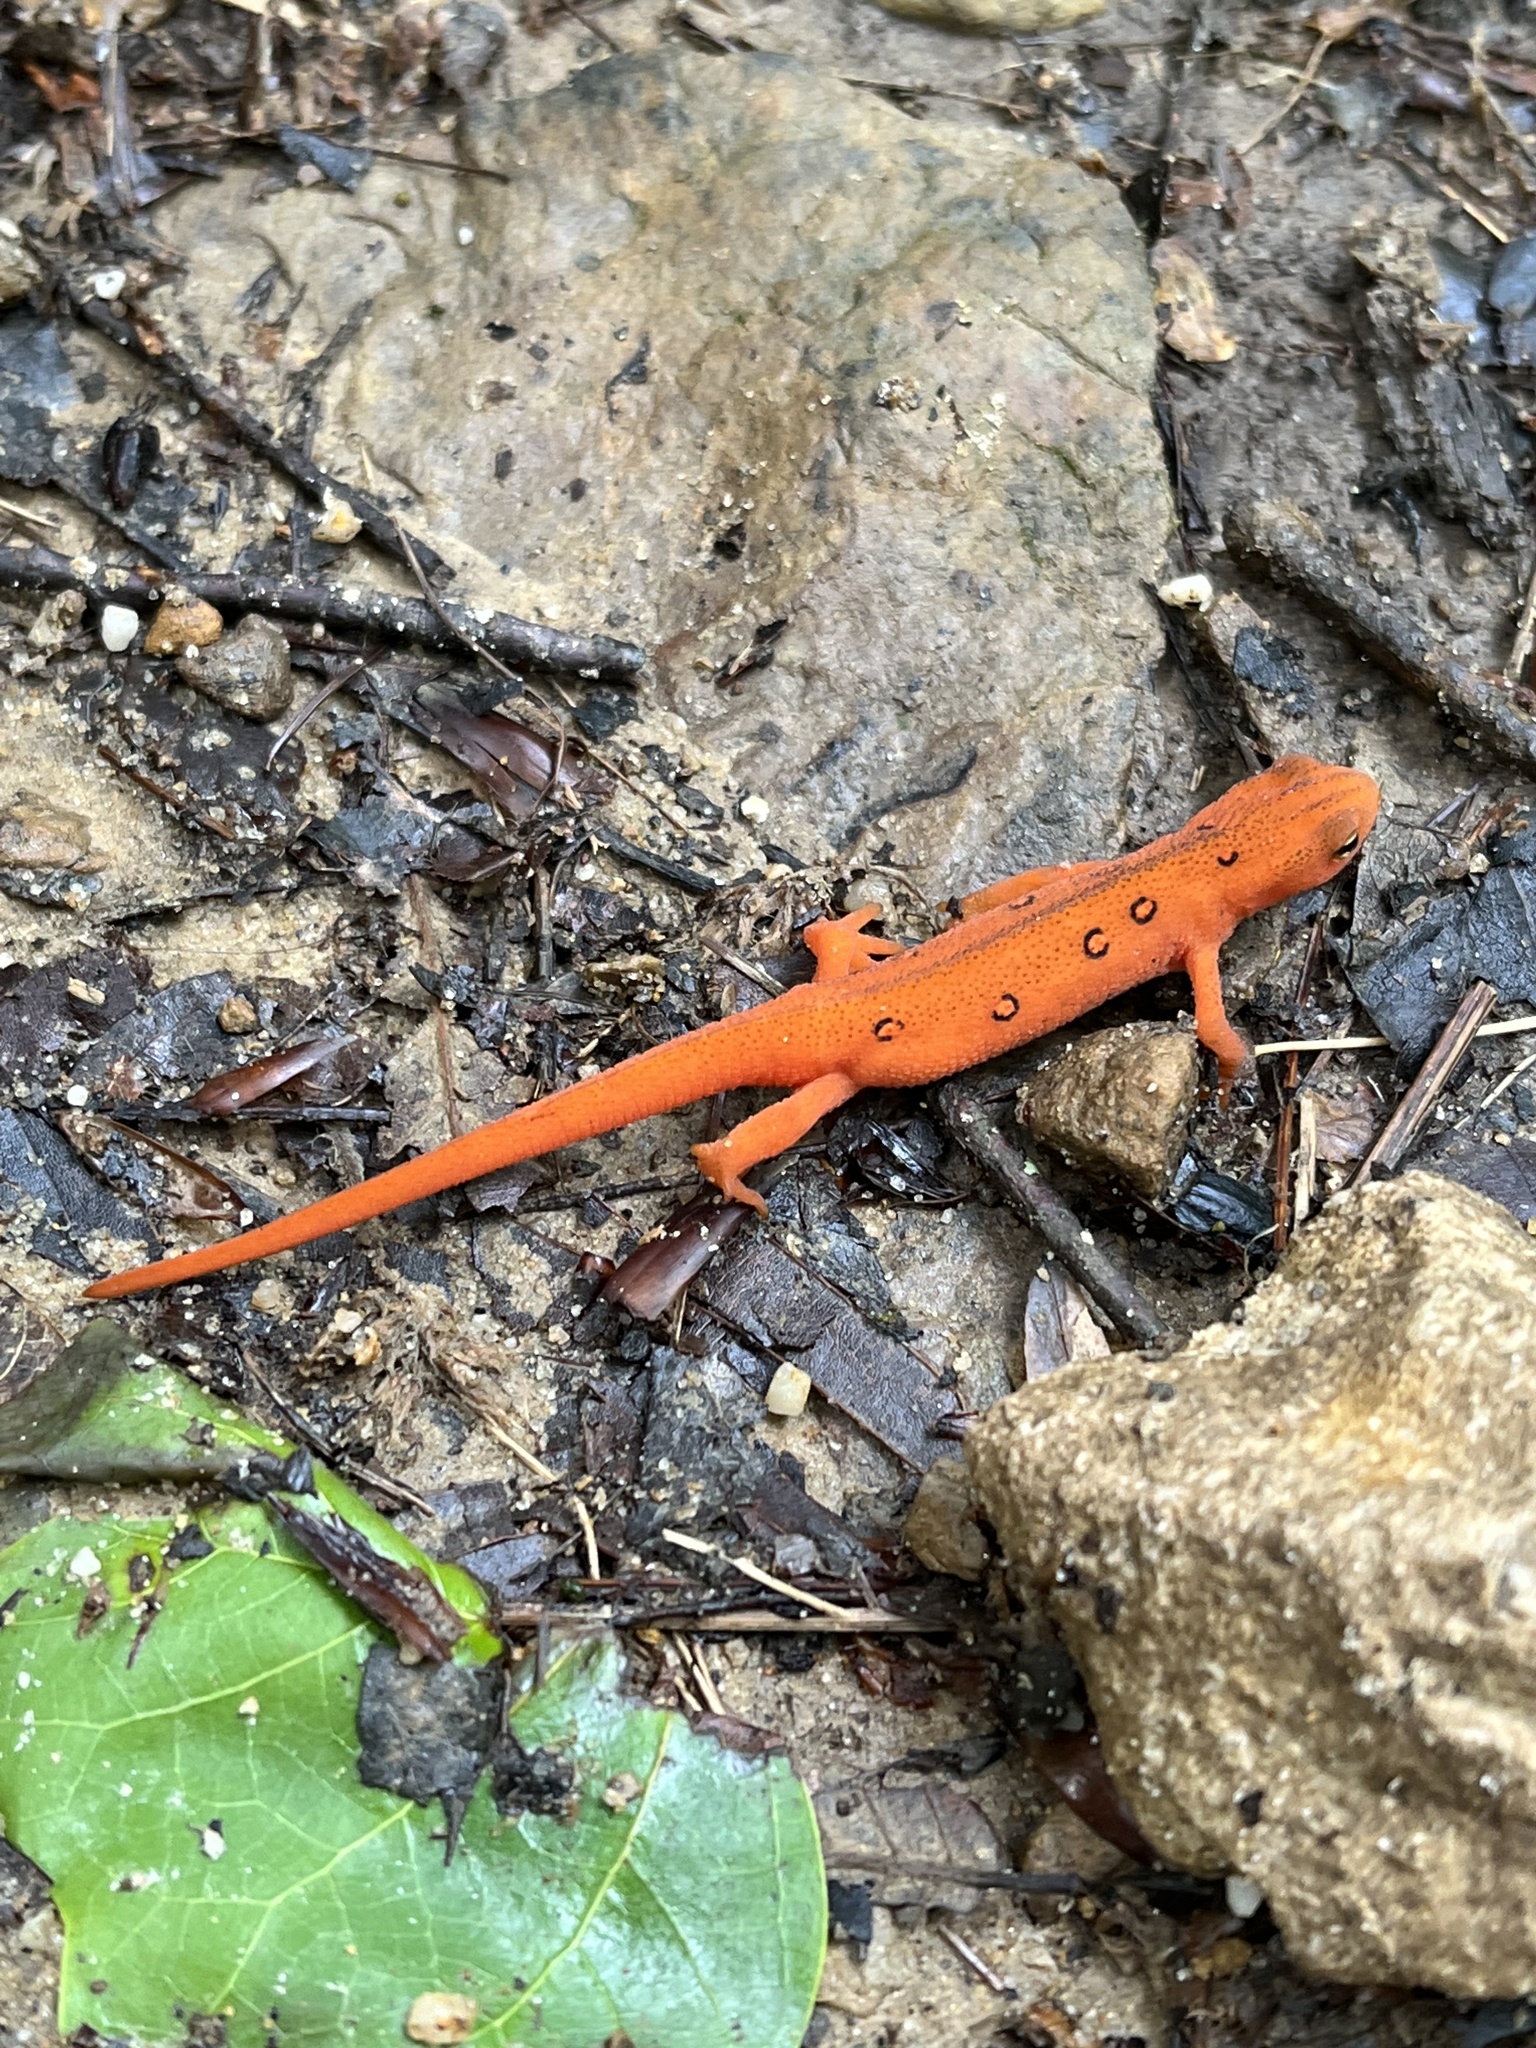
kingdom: Animalia
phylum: Chordata
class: Amphibia
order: Caudata
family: Salamandridae
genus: Notophthalmus
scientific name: Notophthalmus viridescens
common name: Eastern newt
